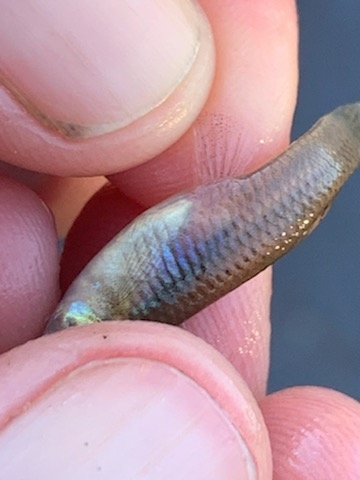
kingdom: Animalia
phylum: Chordata
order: Cyprinodontiformes
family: Poeciliidae
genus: Gambusia
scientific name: Gambusia affinis
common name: Mosquitofish
